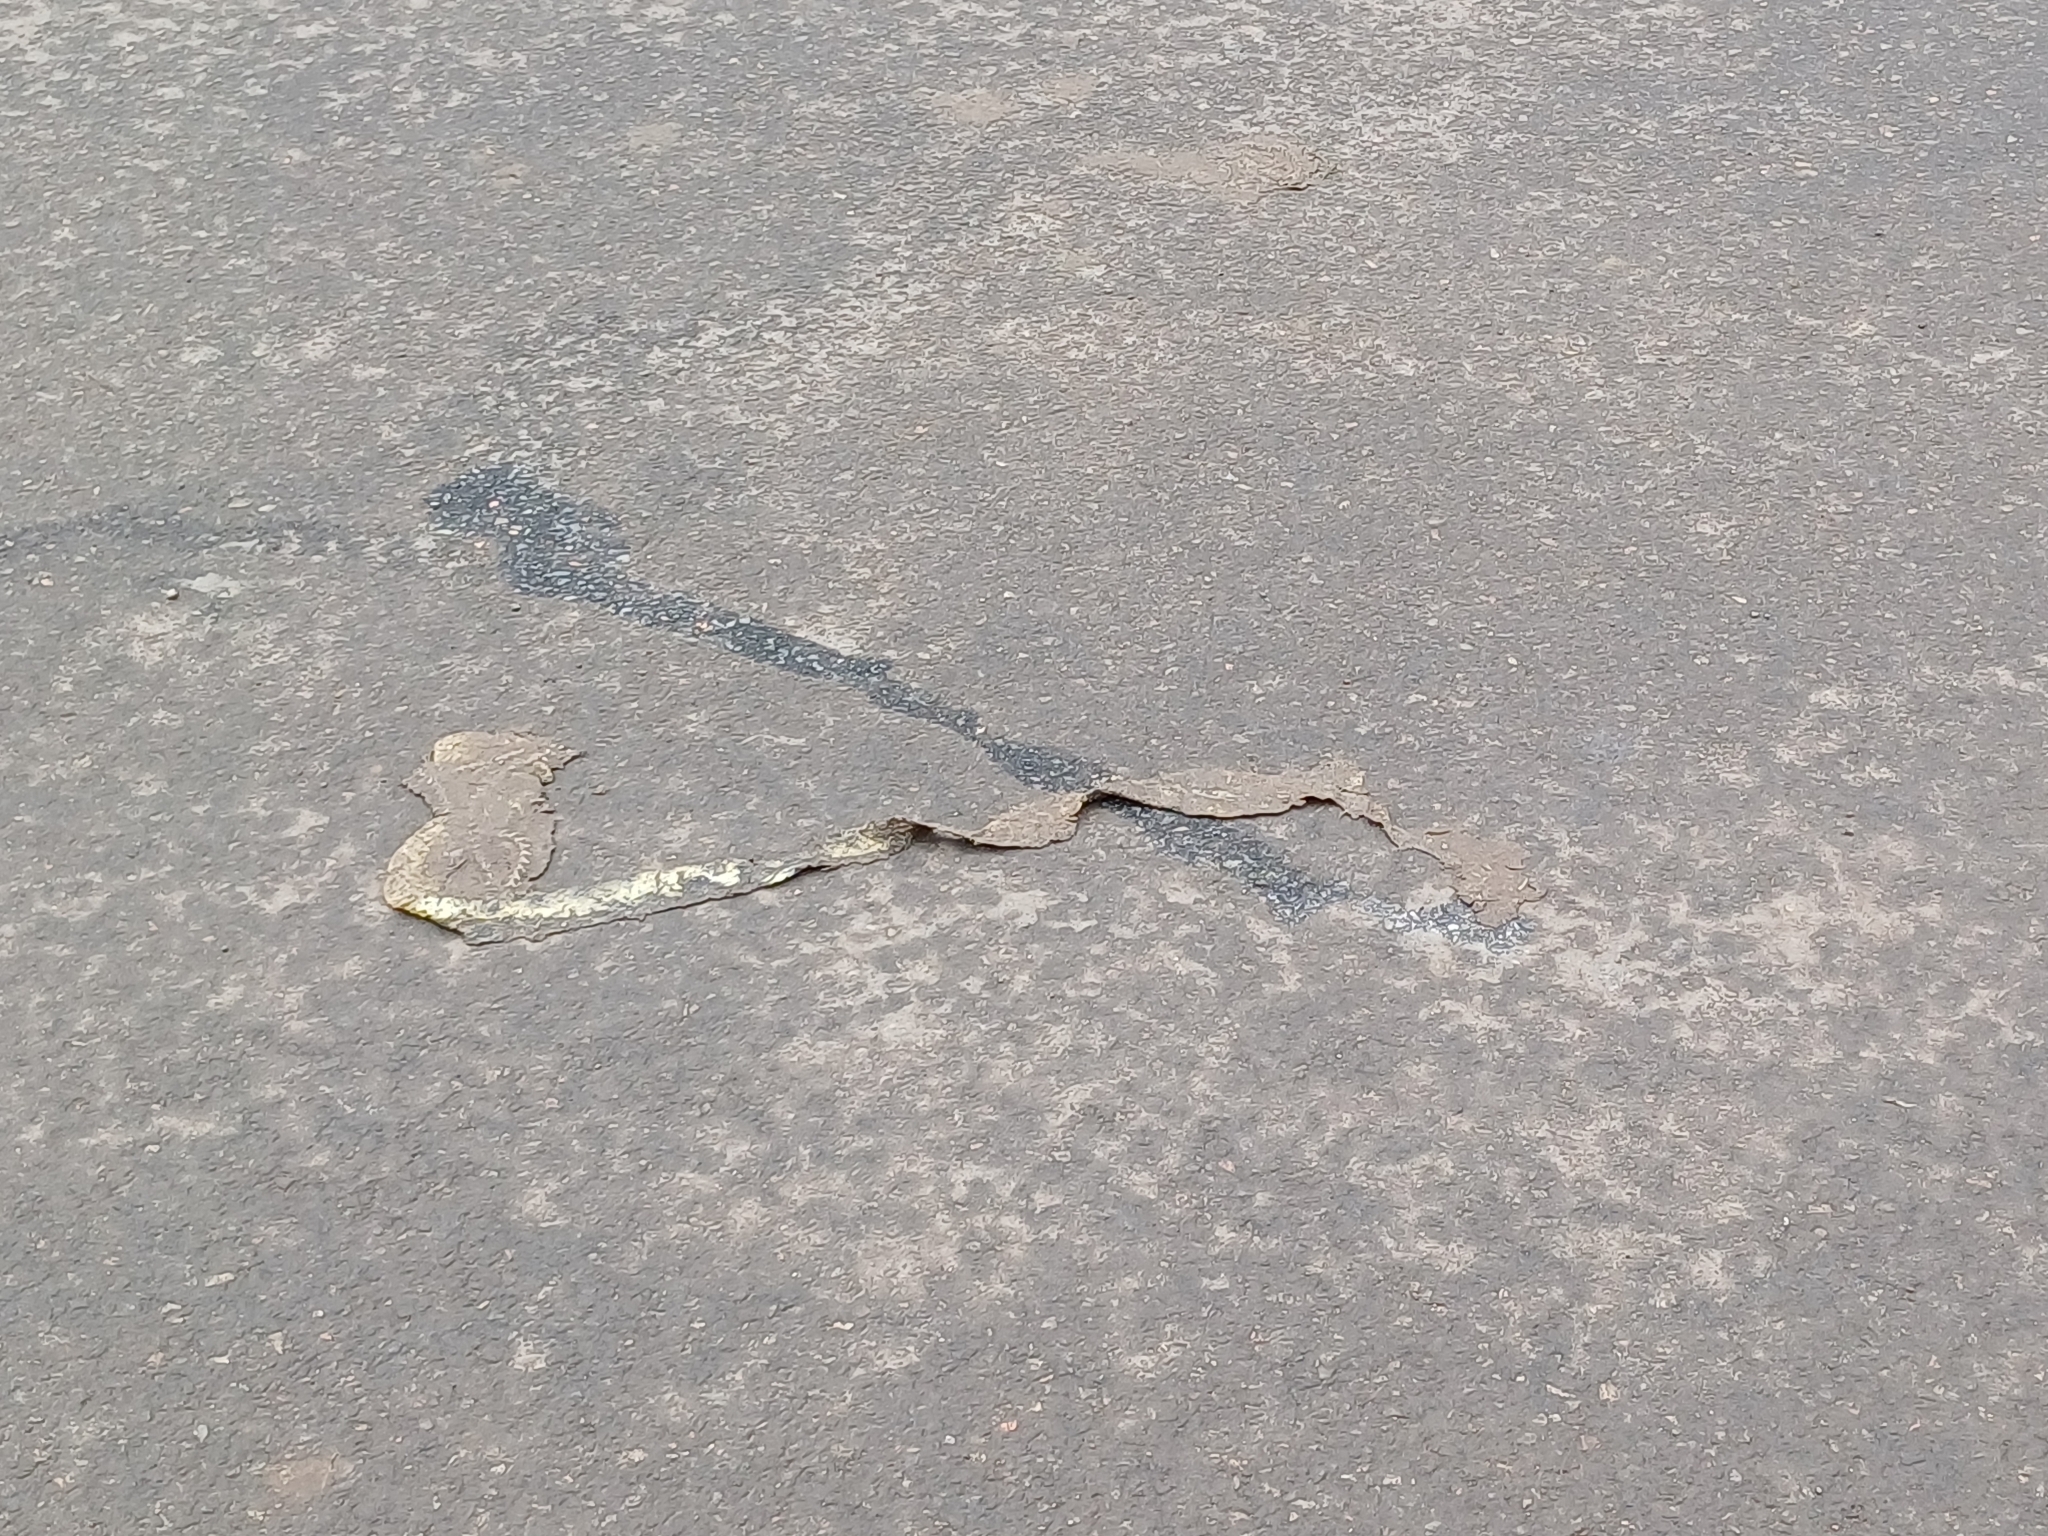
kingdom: Animalia
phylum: Chordata
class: Squamata
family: Colubridae
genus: Fowlea
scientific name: Fowlea piscator
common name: Asiatic water snake
